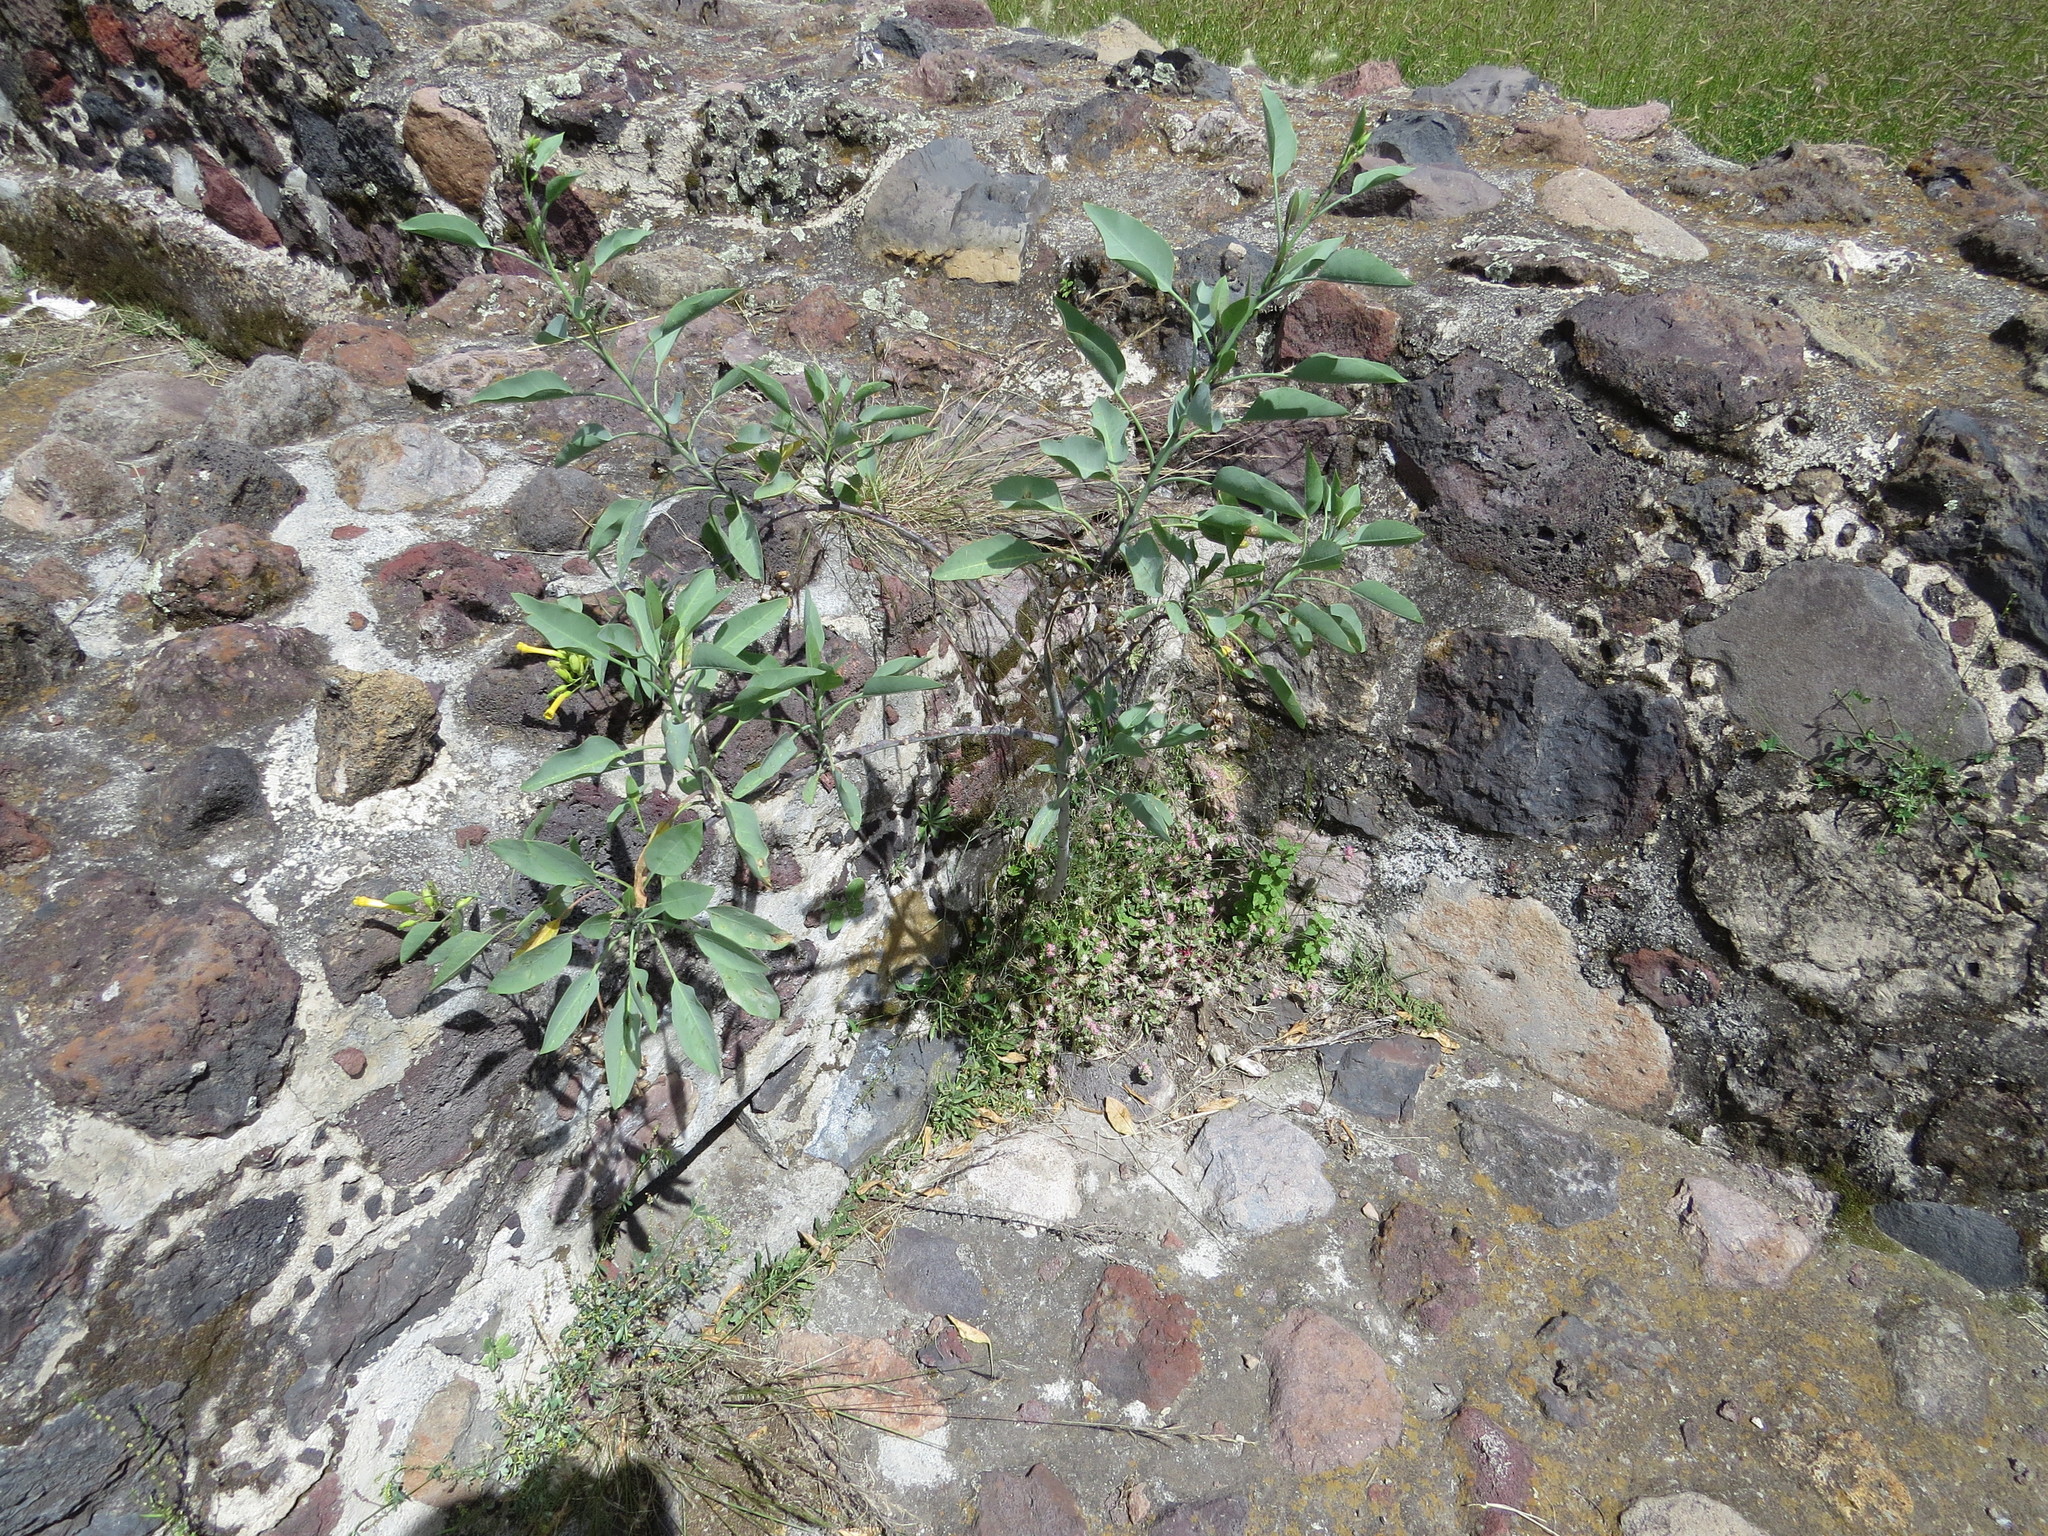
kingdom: Plantae
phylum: Tracheophyta
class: Magnoliopsida
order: Solanales
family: Solanaceae
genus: Nicotiana
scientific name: Nicotiana glauca
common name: Tree tobacco
